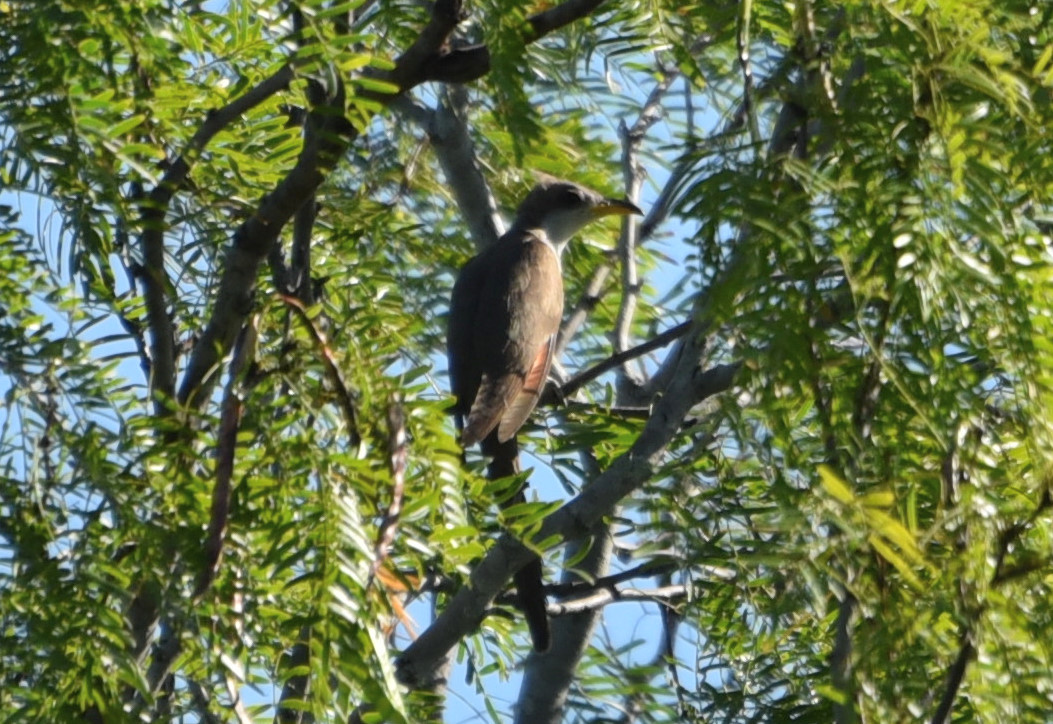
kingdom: Animalia
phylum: Chordata
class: Aves
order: Cuculiformes
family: Cuculidae
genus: Coccyzus
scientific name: Coccyzus americanus
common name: Yellow-billed cuckoo
